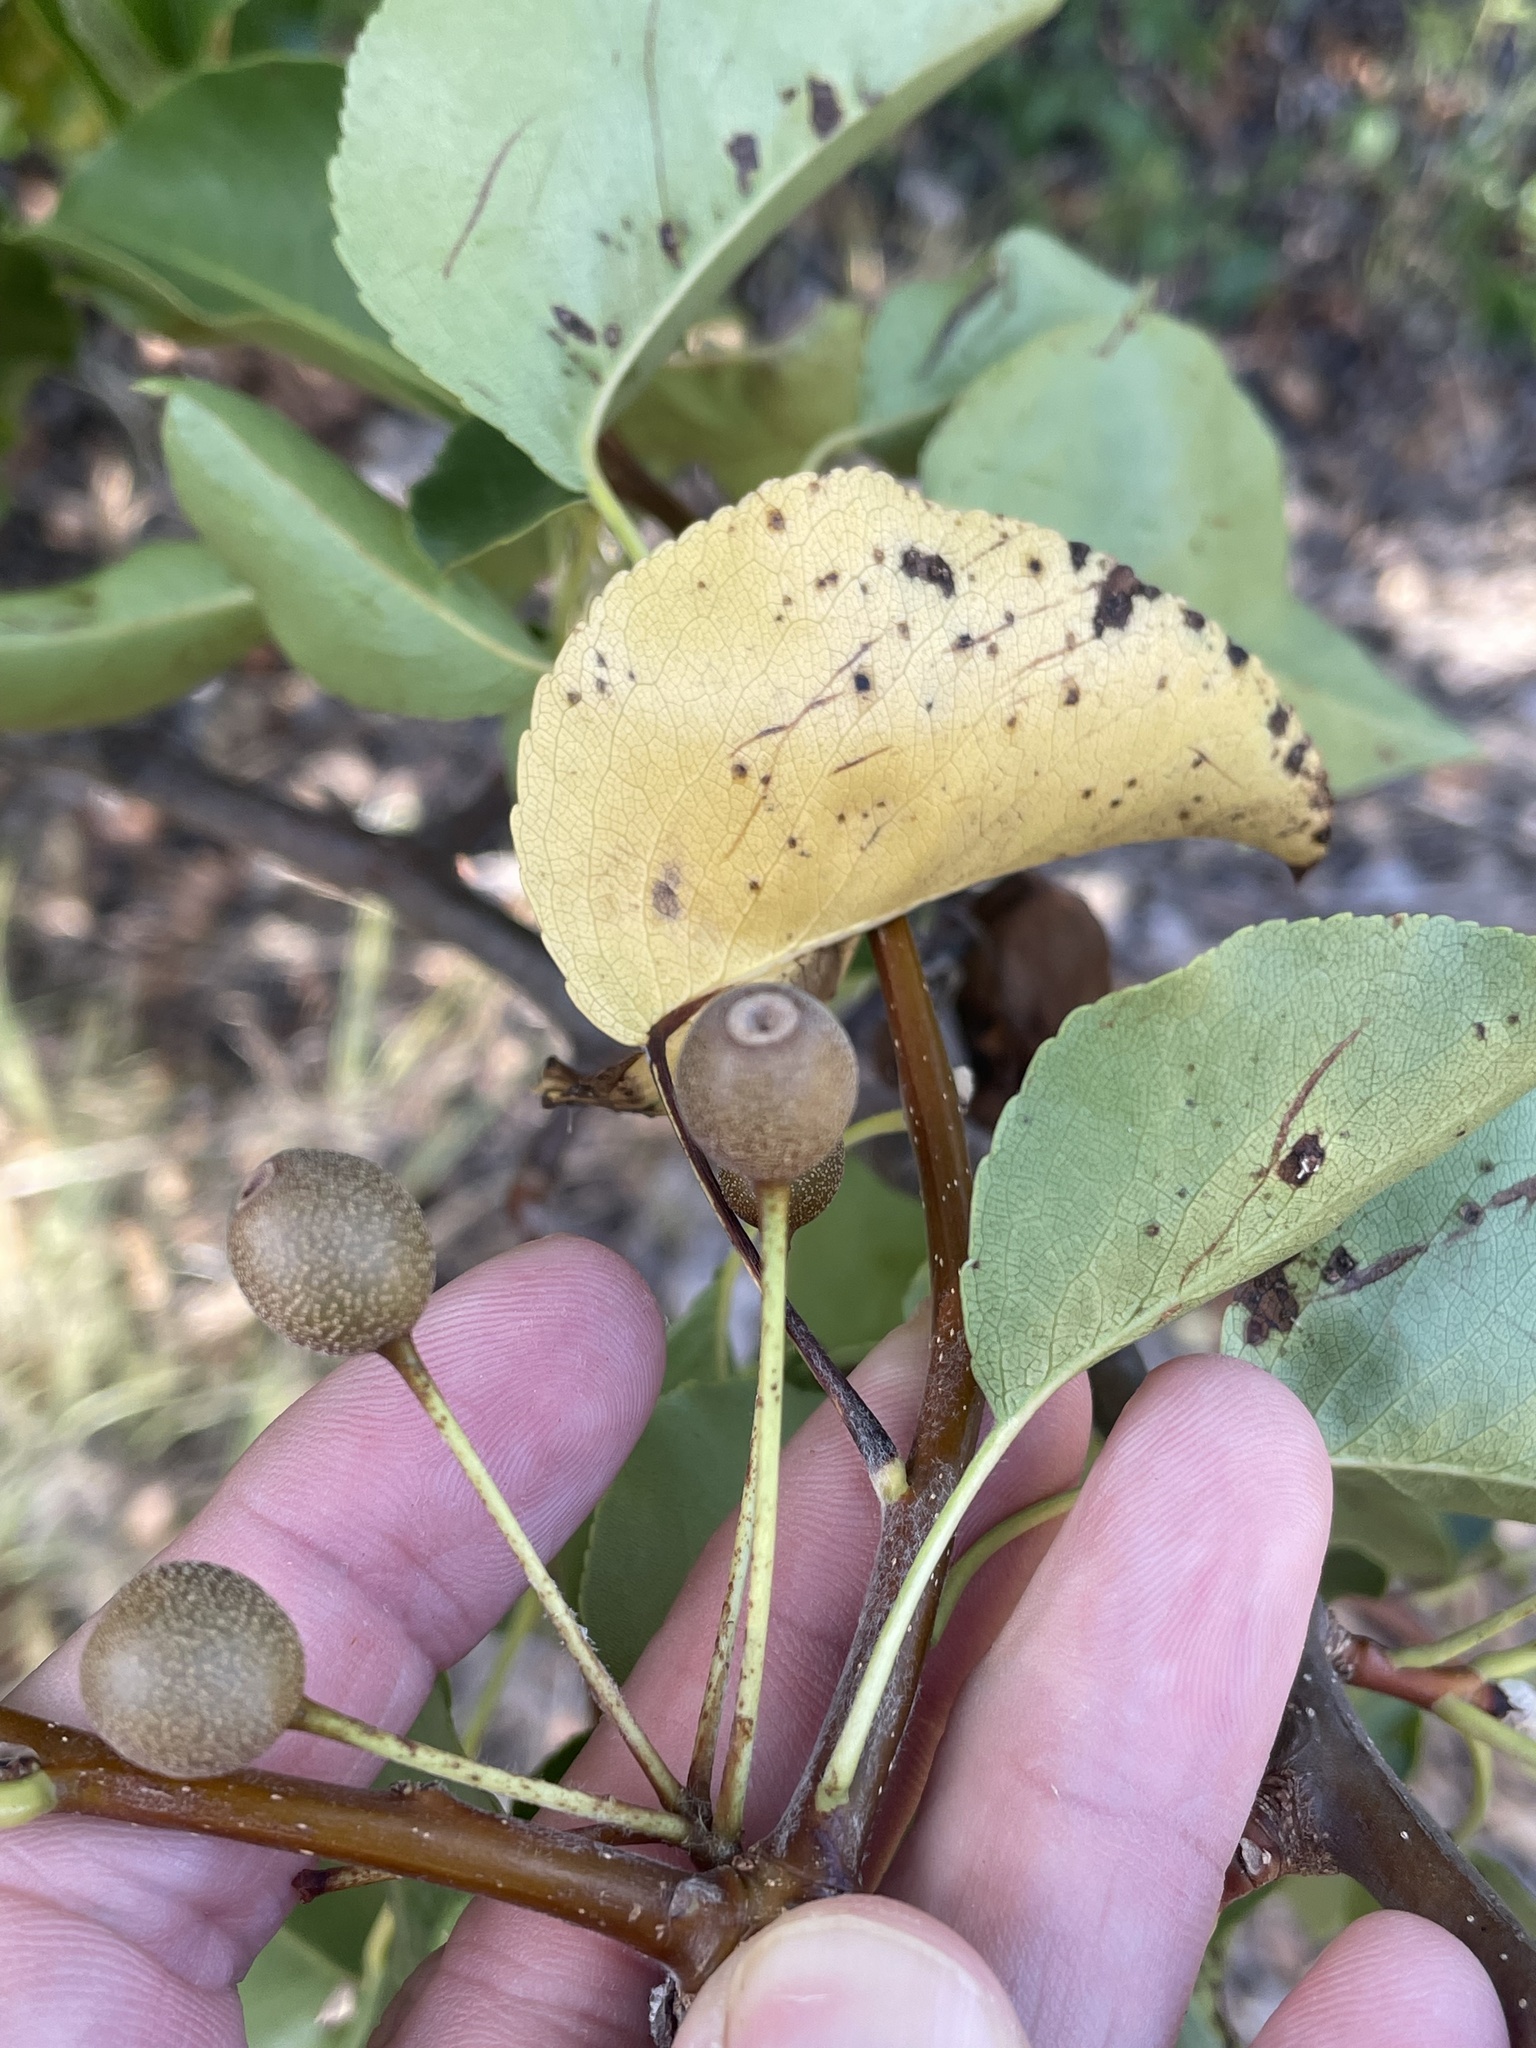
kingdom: Plantae
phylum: Tracheophyta
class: Magnoliopsida
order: Rosales
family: Rosaceae
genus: Pyrus
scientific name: Pyrus calleryana
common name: Callery pear
